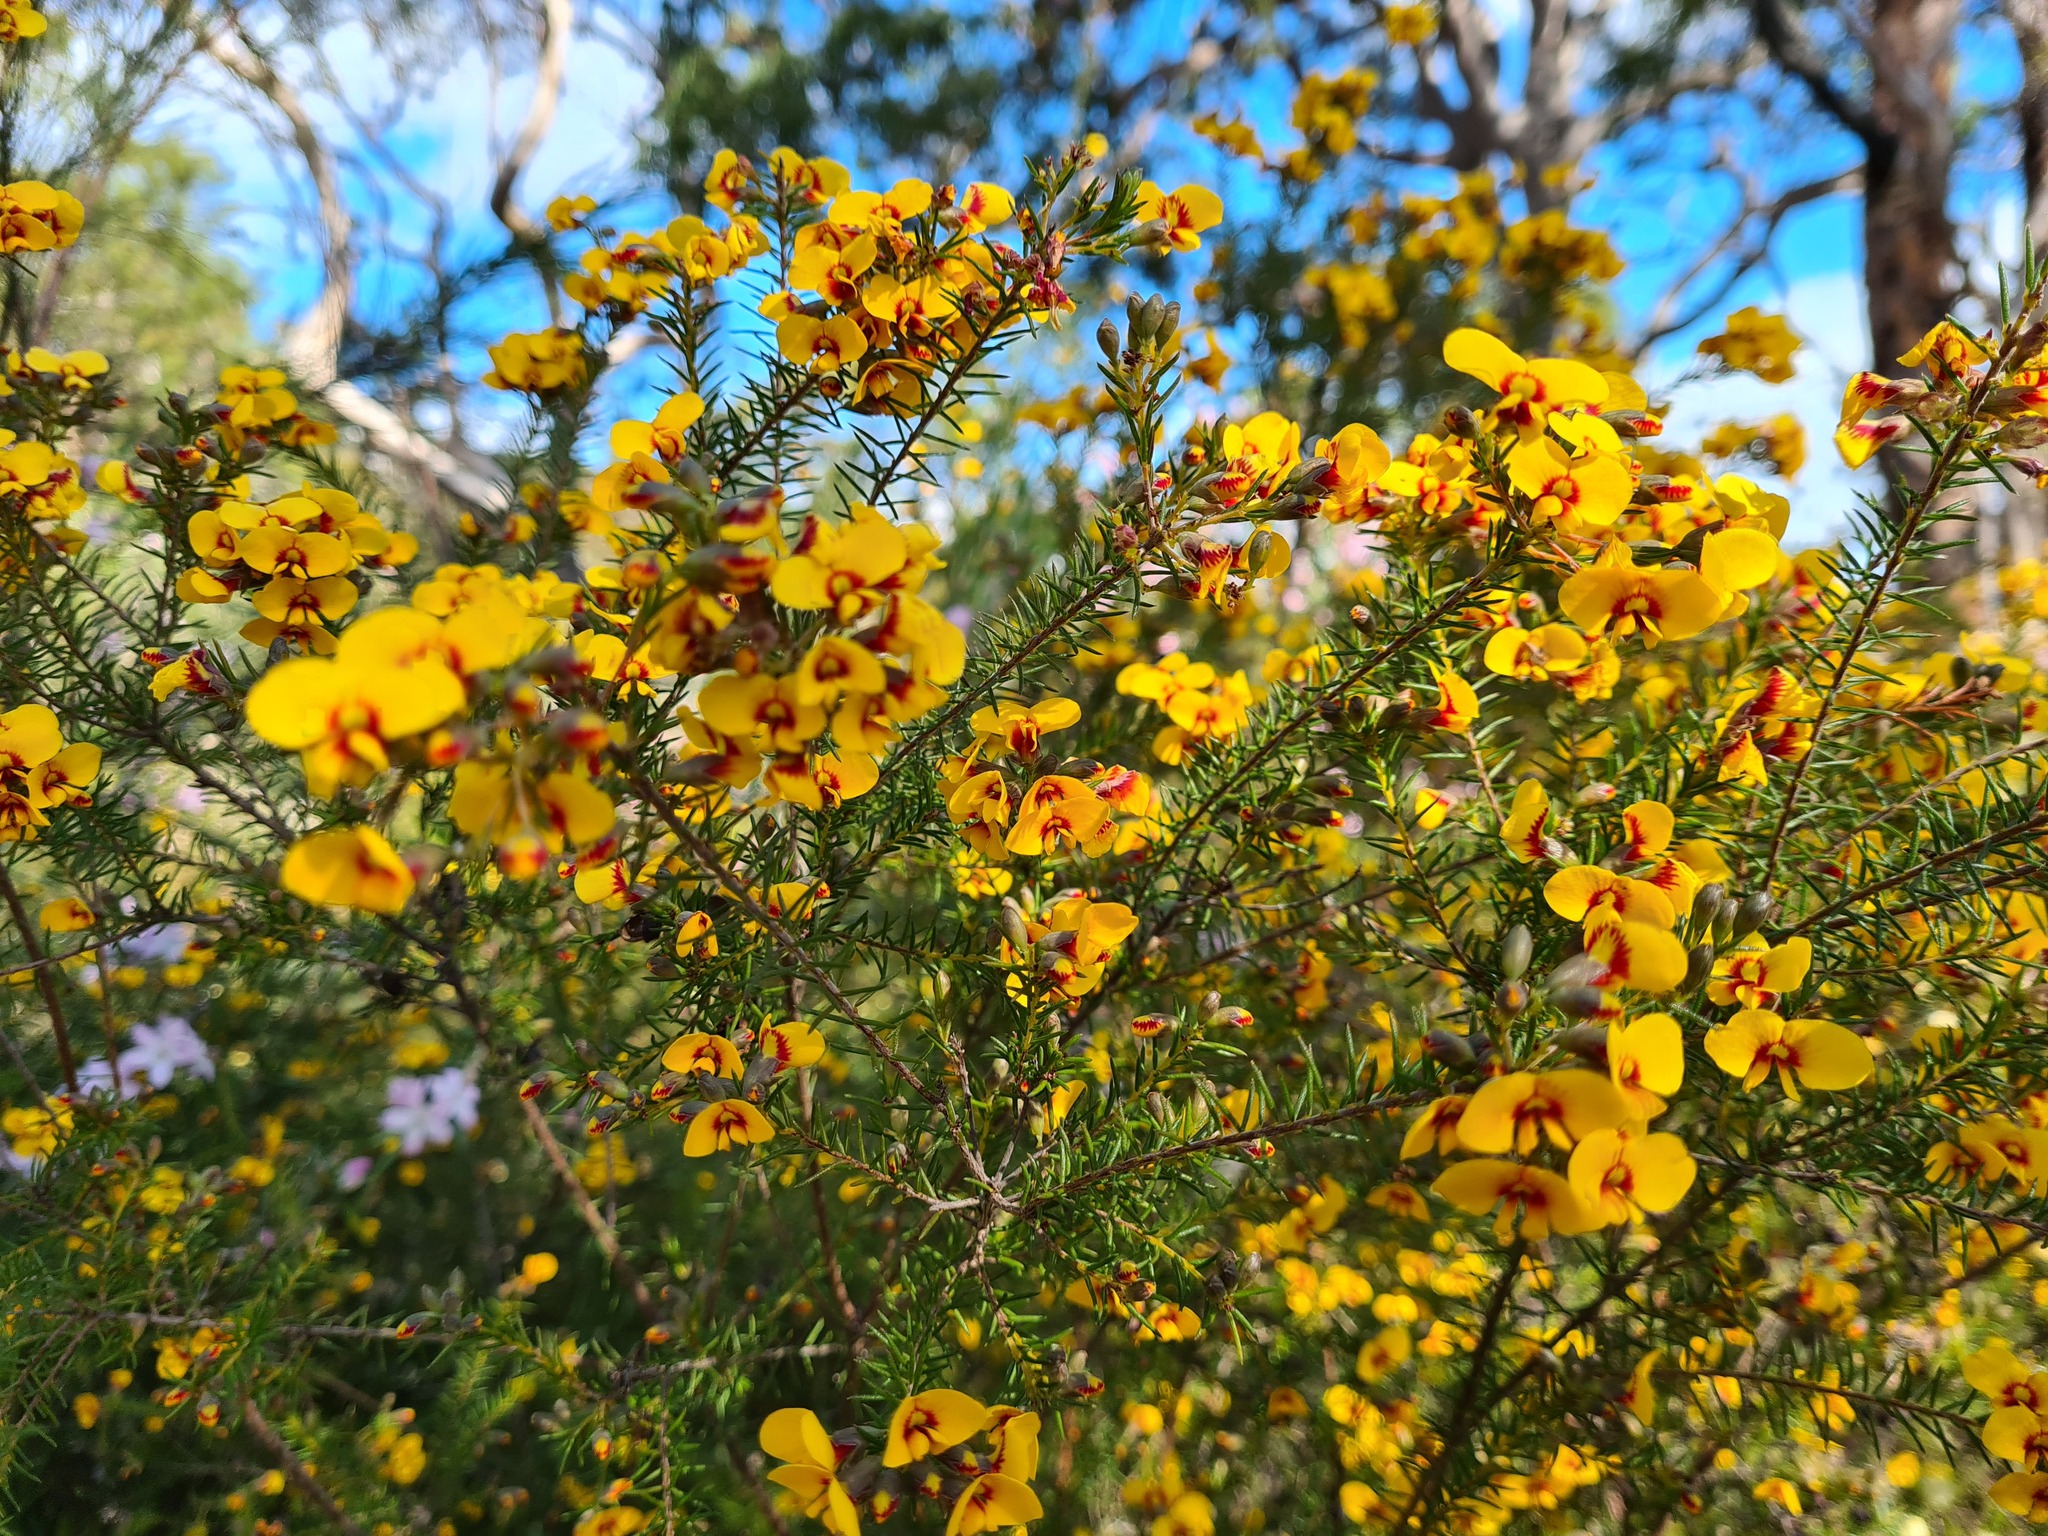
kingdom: Plantae
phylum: Tracheophyta
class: Magnoliopsida
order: Fabales
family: Fabaceae
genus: Dillwynia
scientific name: Dillwynia retorta
